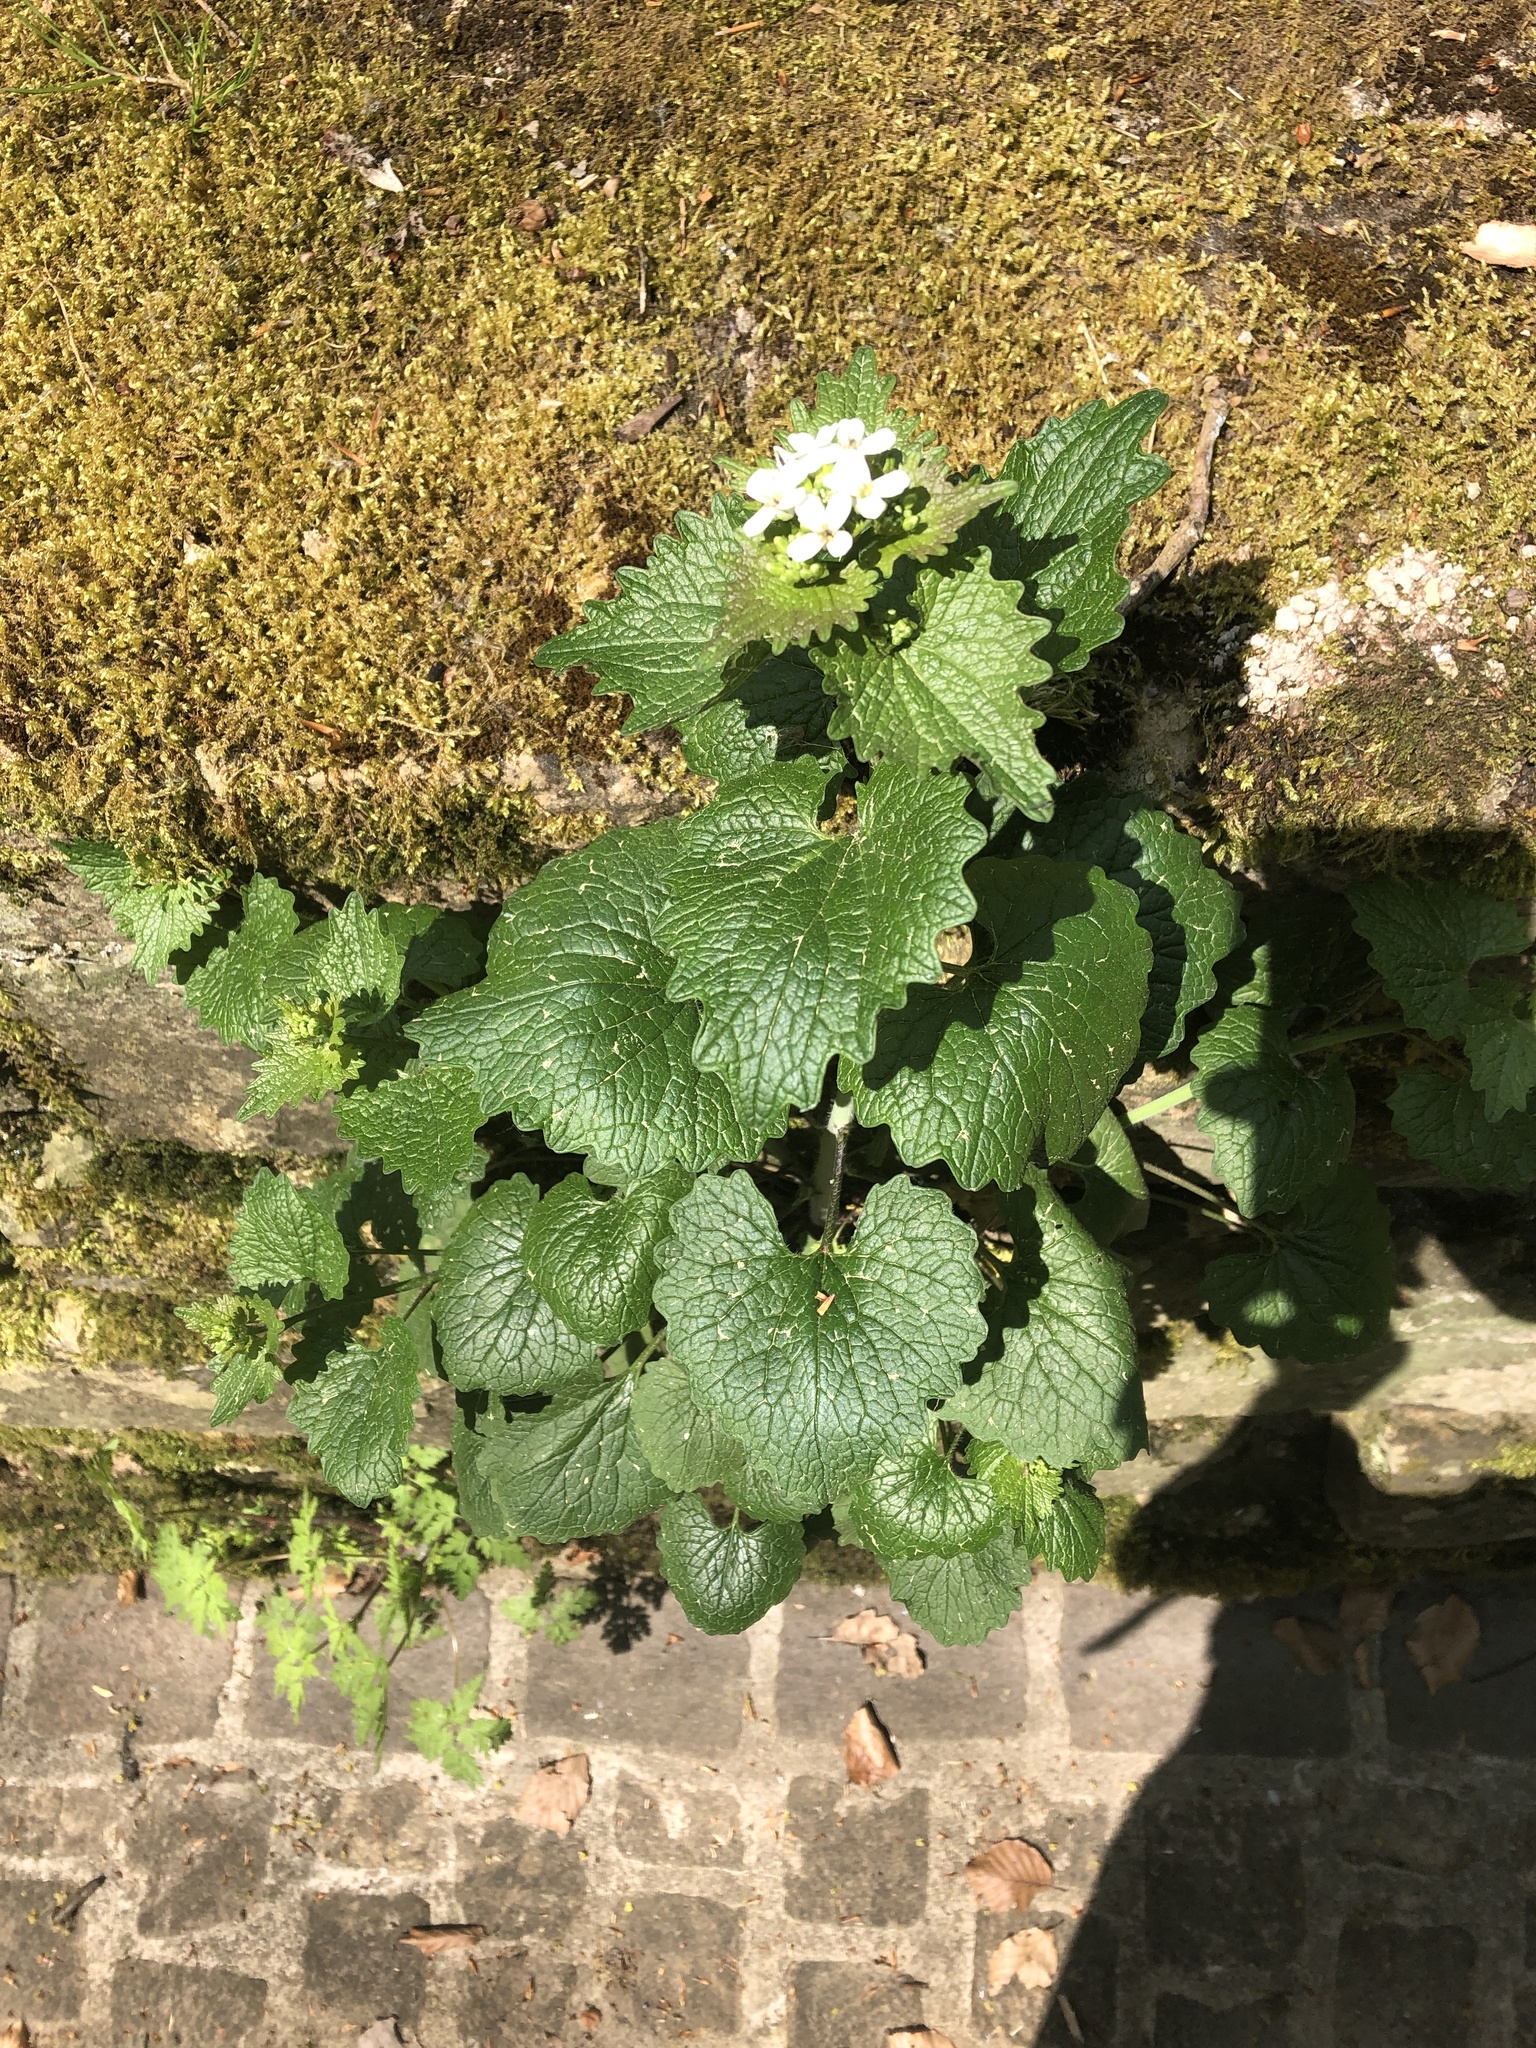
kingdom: Plantae
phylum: Tracheophyta
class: Magnoliopsida
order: Brassicales
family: Brassicaceae
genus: Alliaria
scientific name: Alliaria petiolata
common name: Garlic mustard
